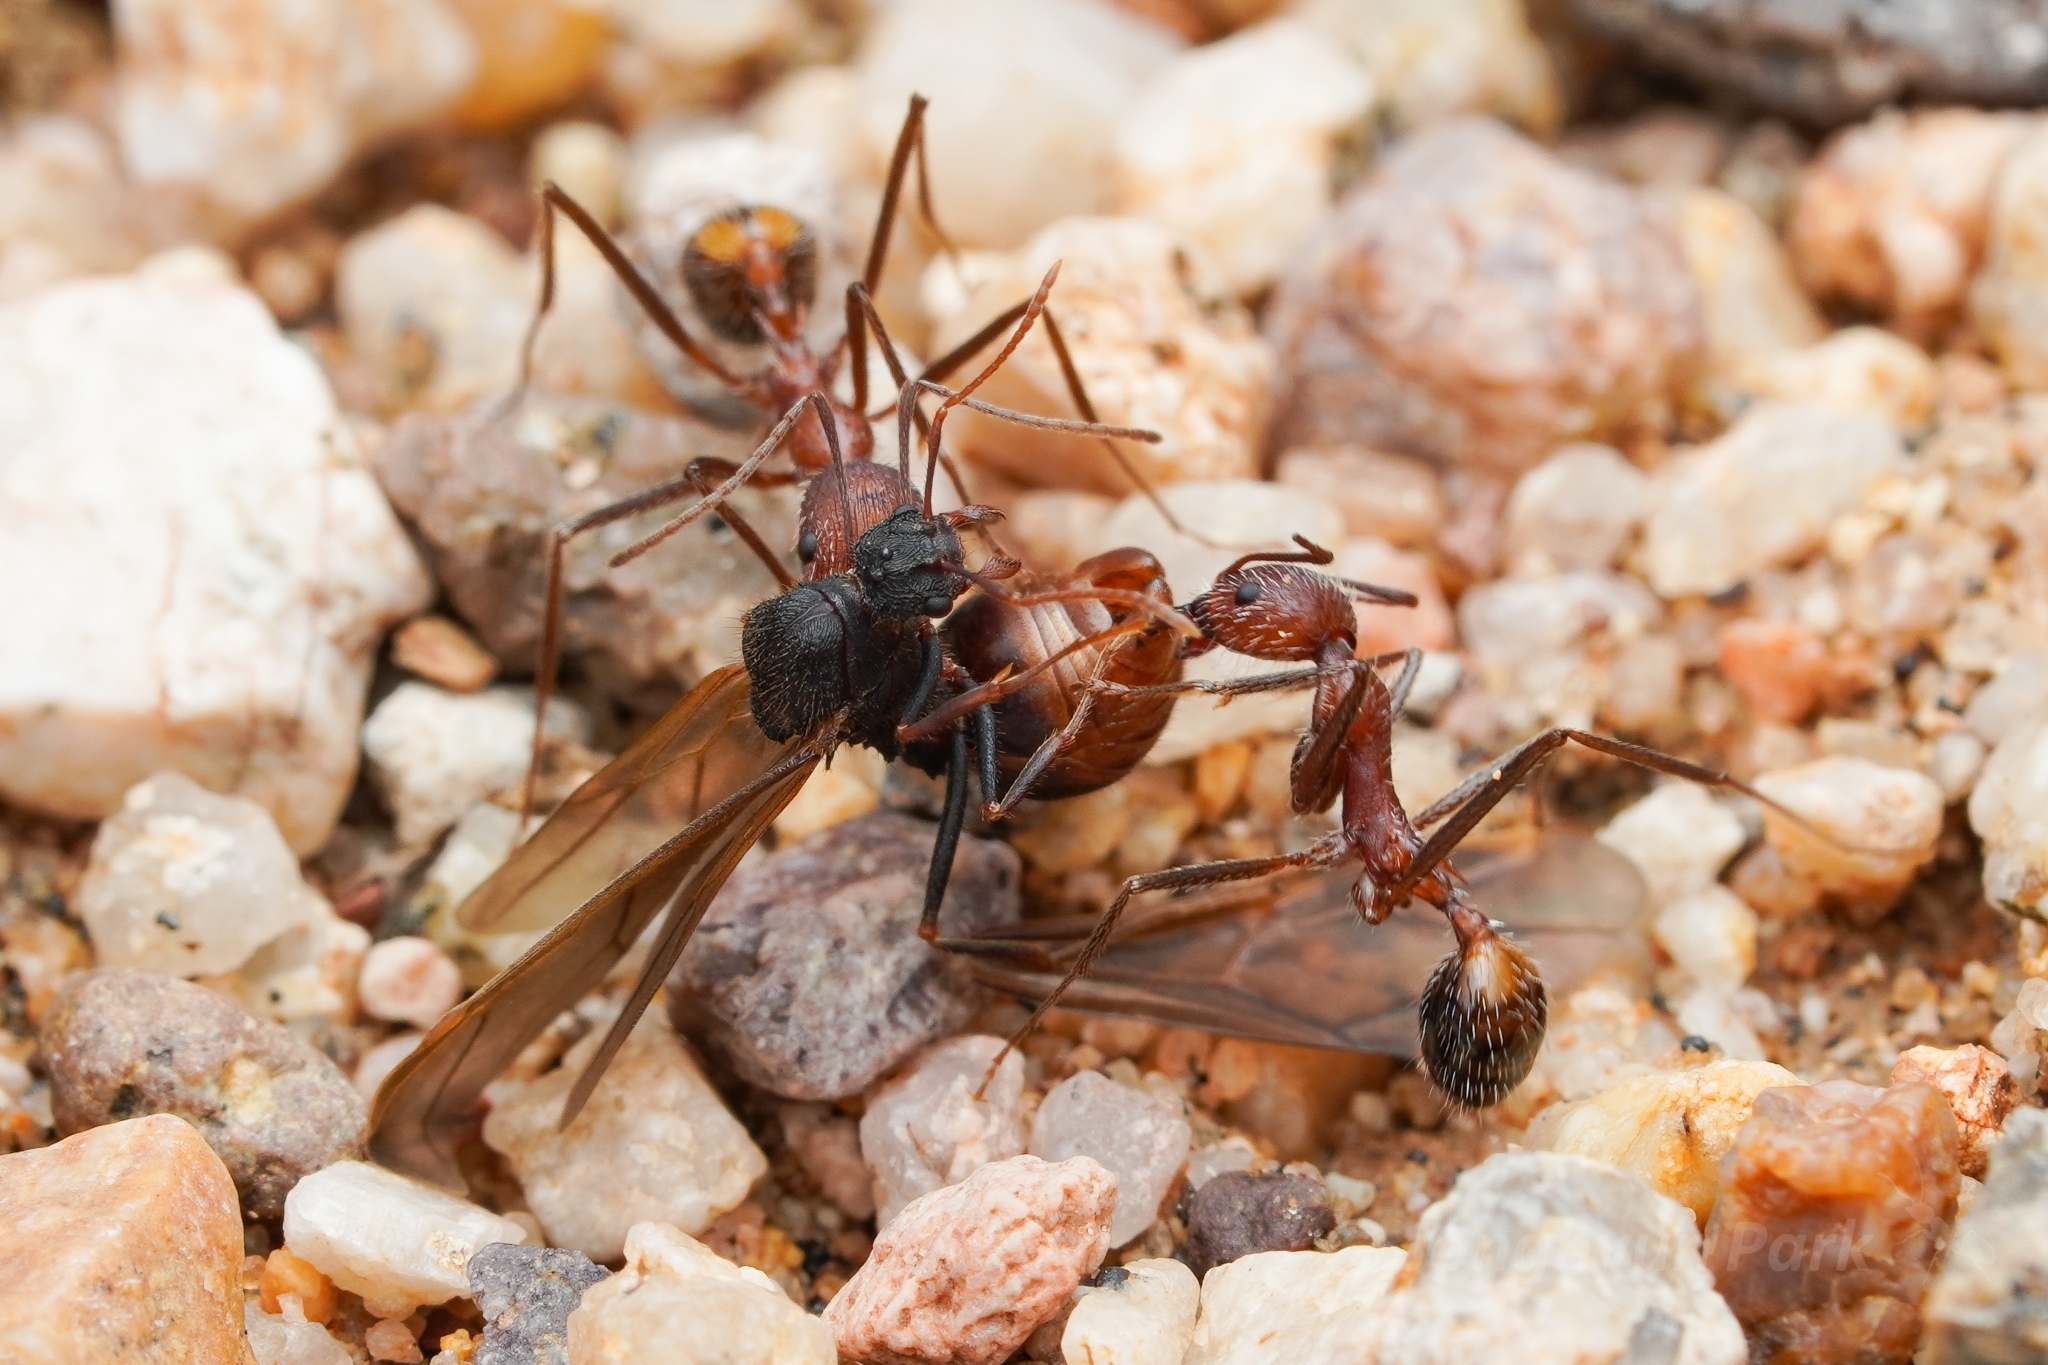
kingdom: Animalia
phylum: Arthropoda
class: Insecta
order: Hymenoptera
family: Formicidae
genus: Novomessor
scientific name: Novomessor albisetosa
